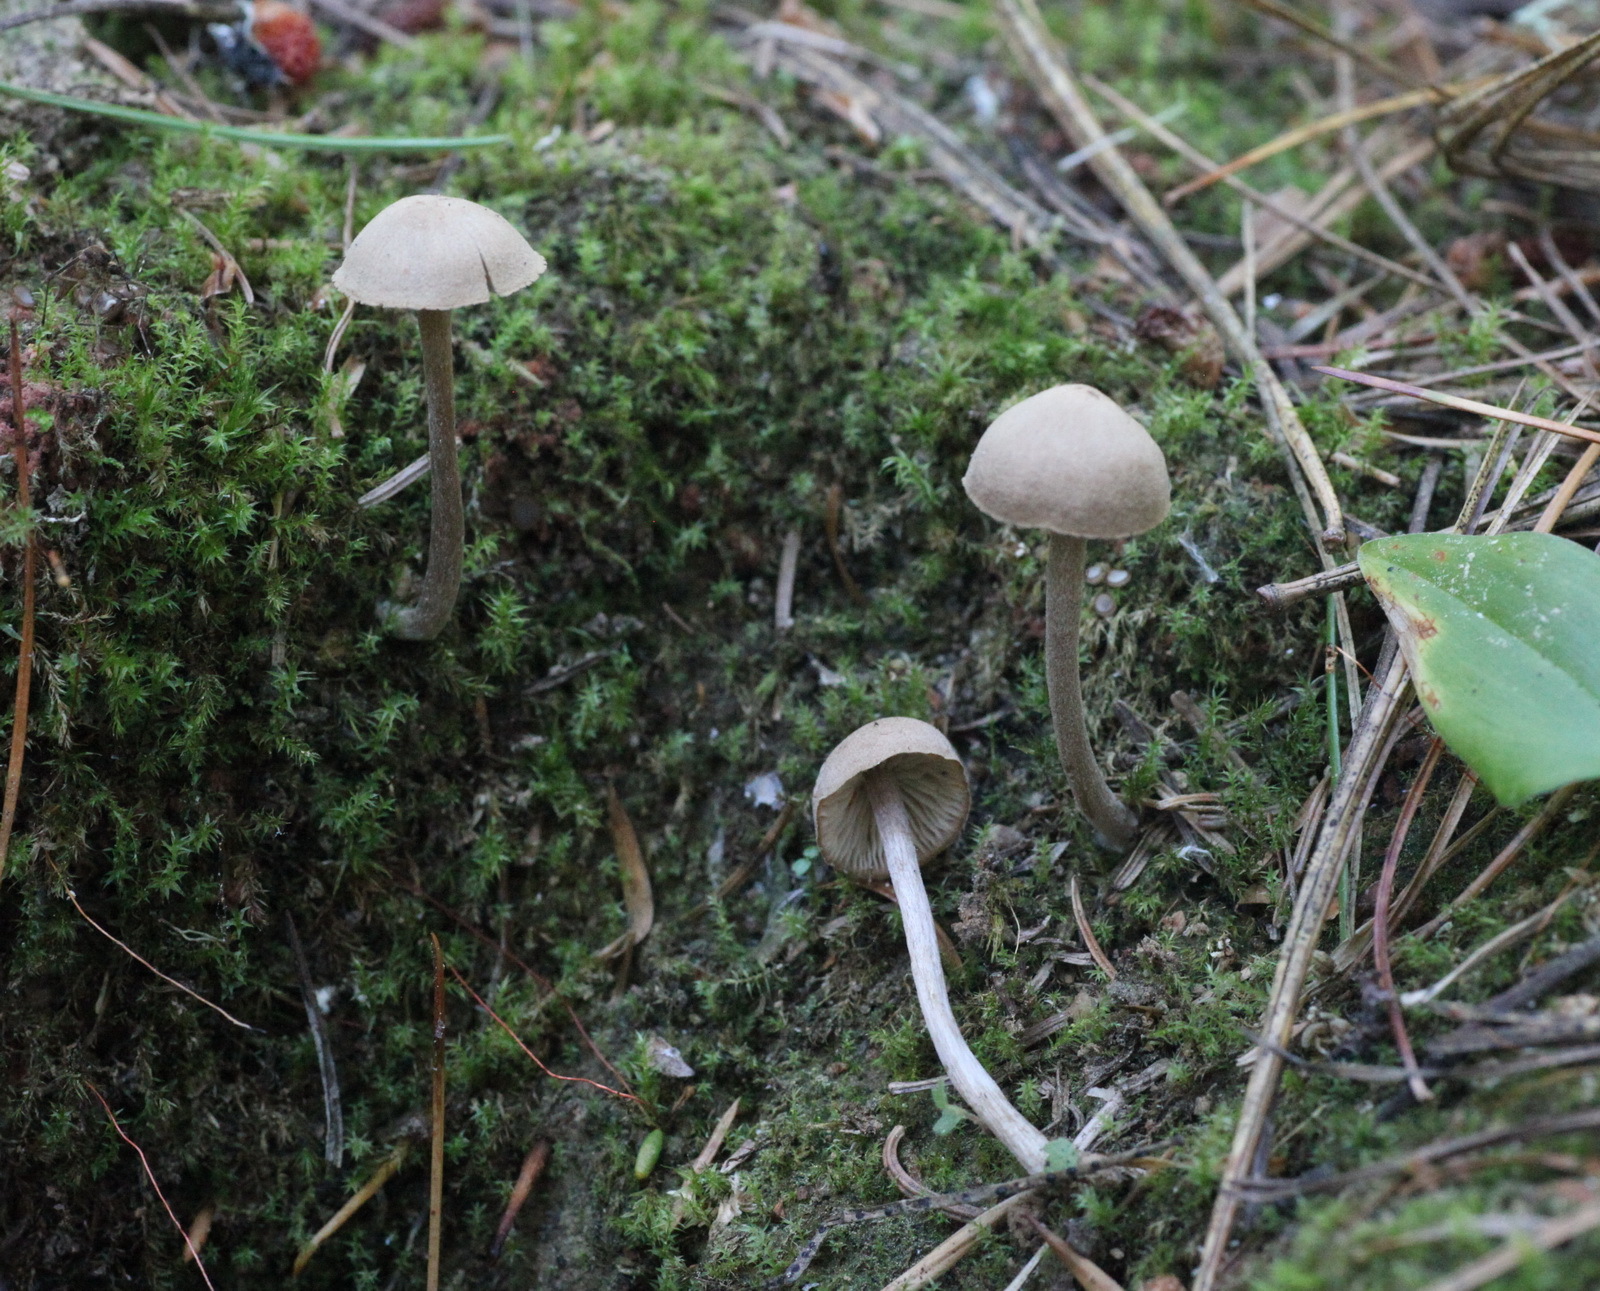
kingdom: Fungi
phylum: Basidiomycota
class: Agaricomycetes
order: Agaricales
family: Callistosporiaceae
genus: Pseudolaccaria
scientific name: Pseudolaccaria pachyphylla
